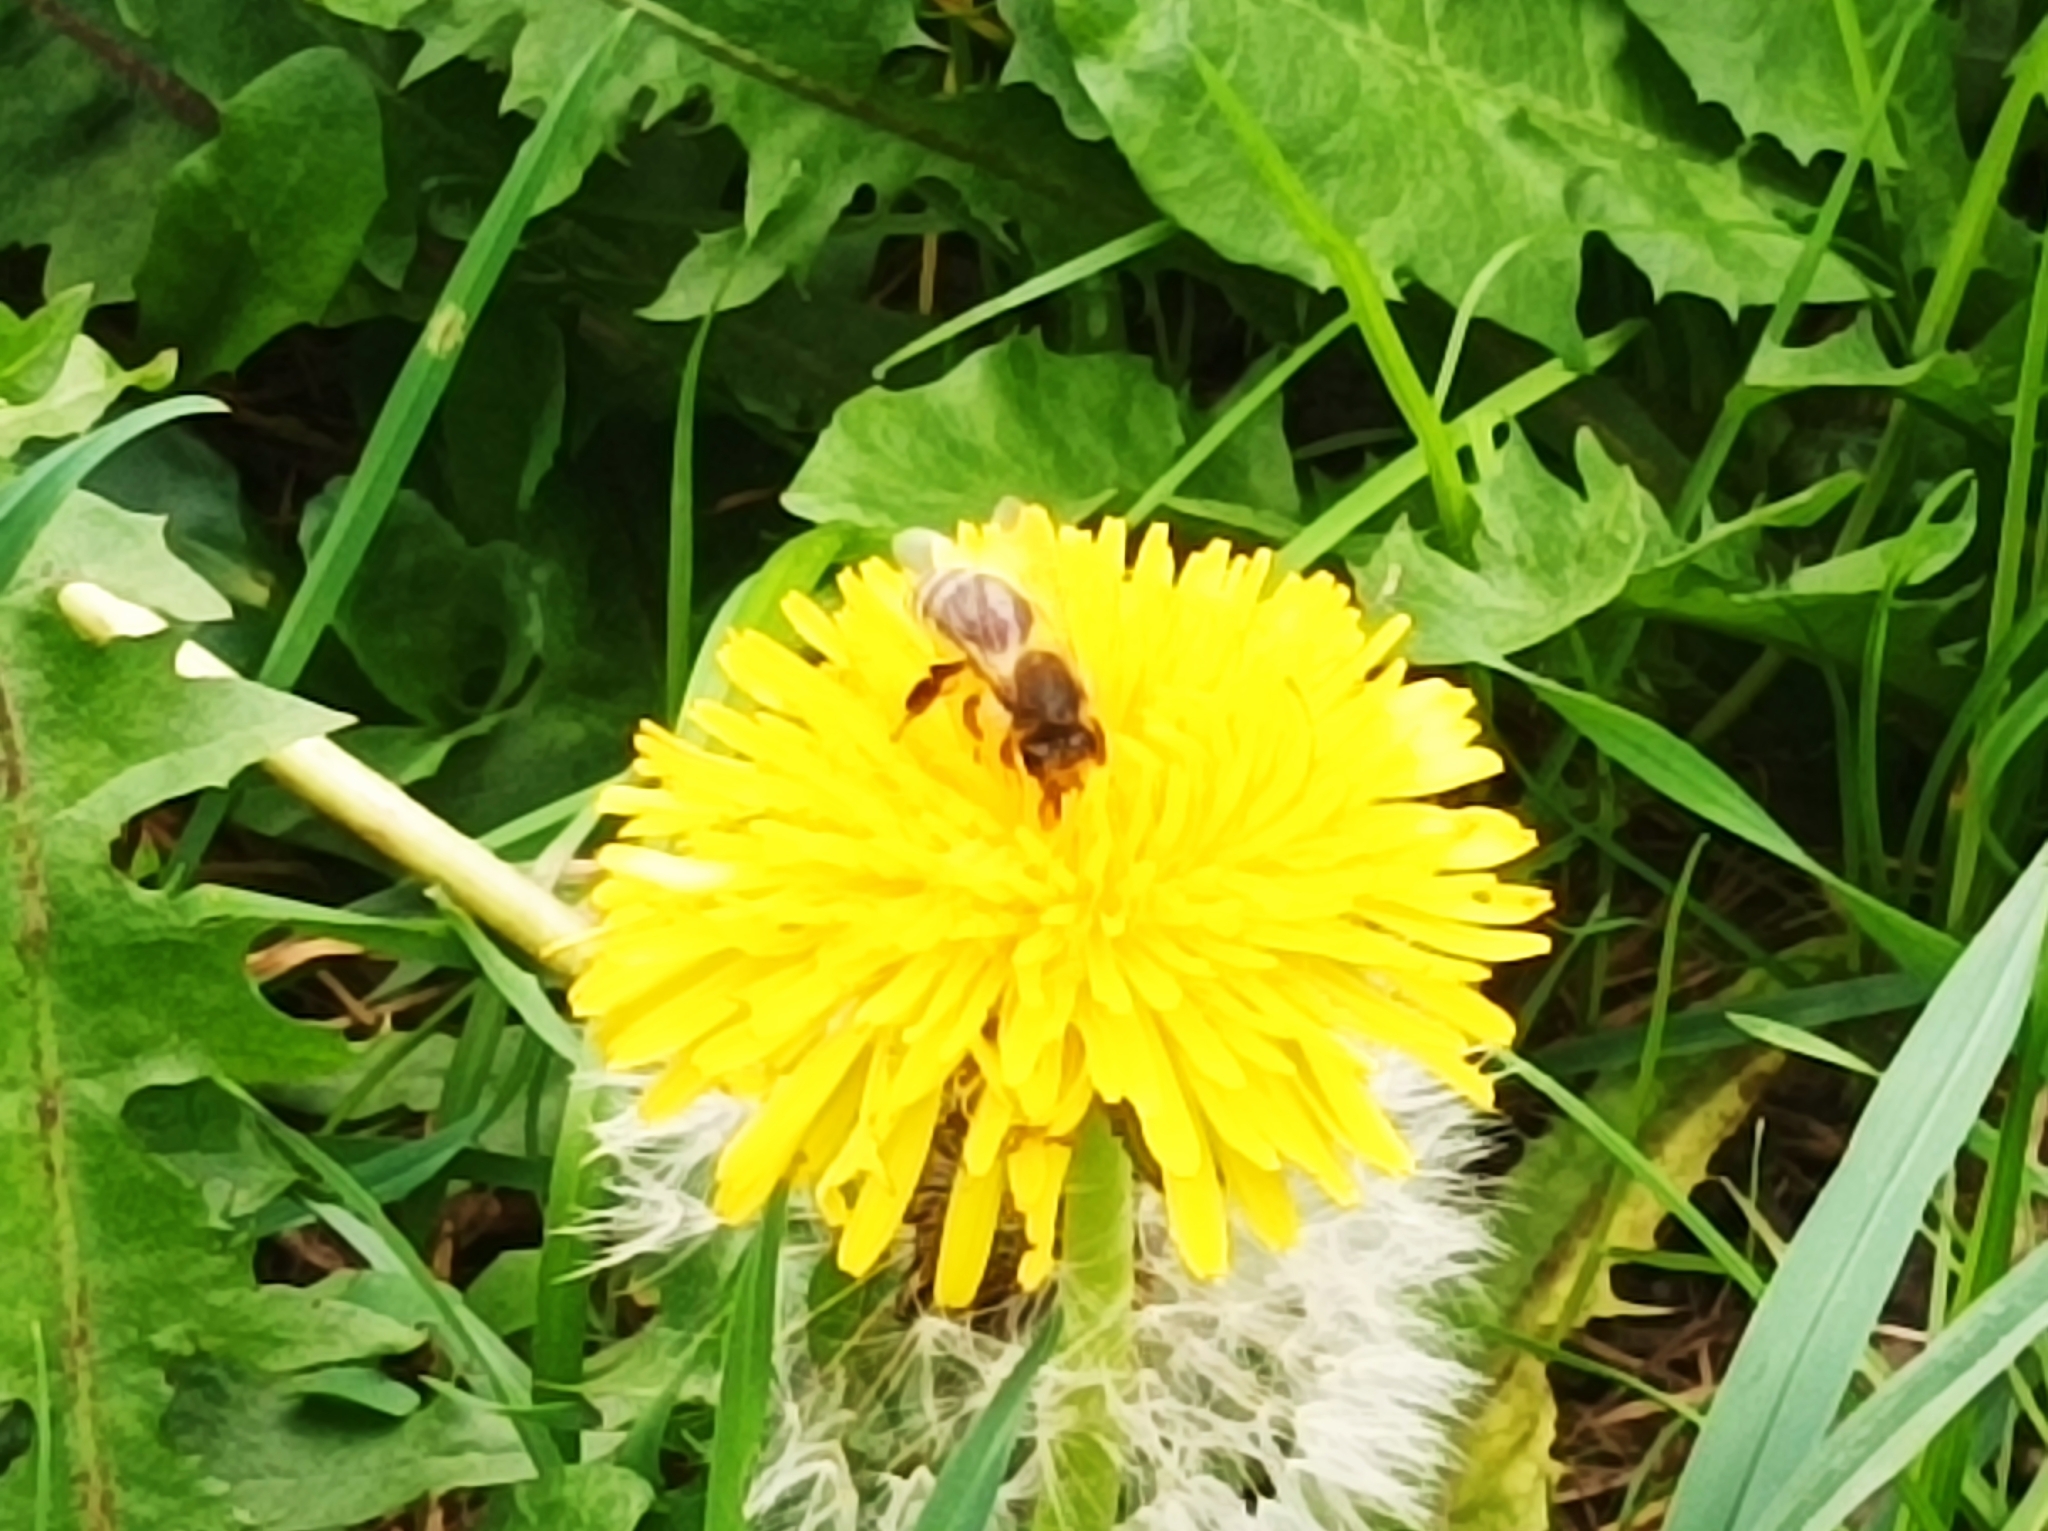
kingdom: Animalia
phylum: Arthropoda
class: Insecta
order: Hymenoptera
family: Apidae
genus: Apis
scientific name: Apis mellifera
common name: Honey bee
